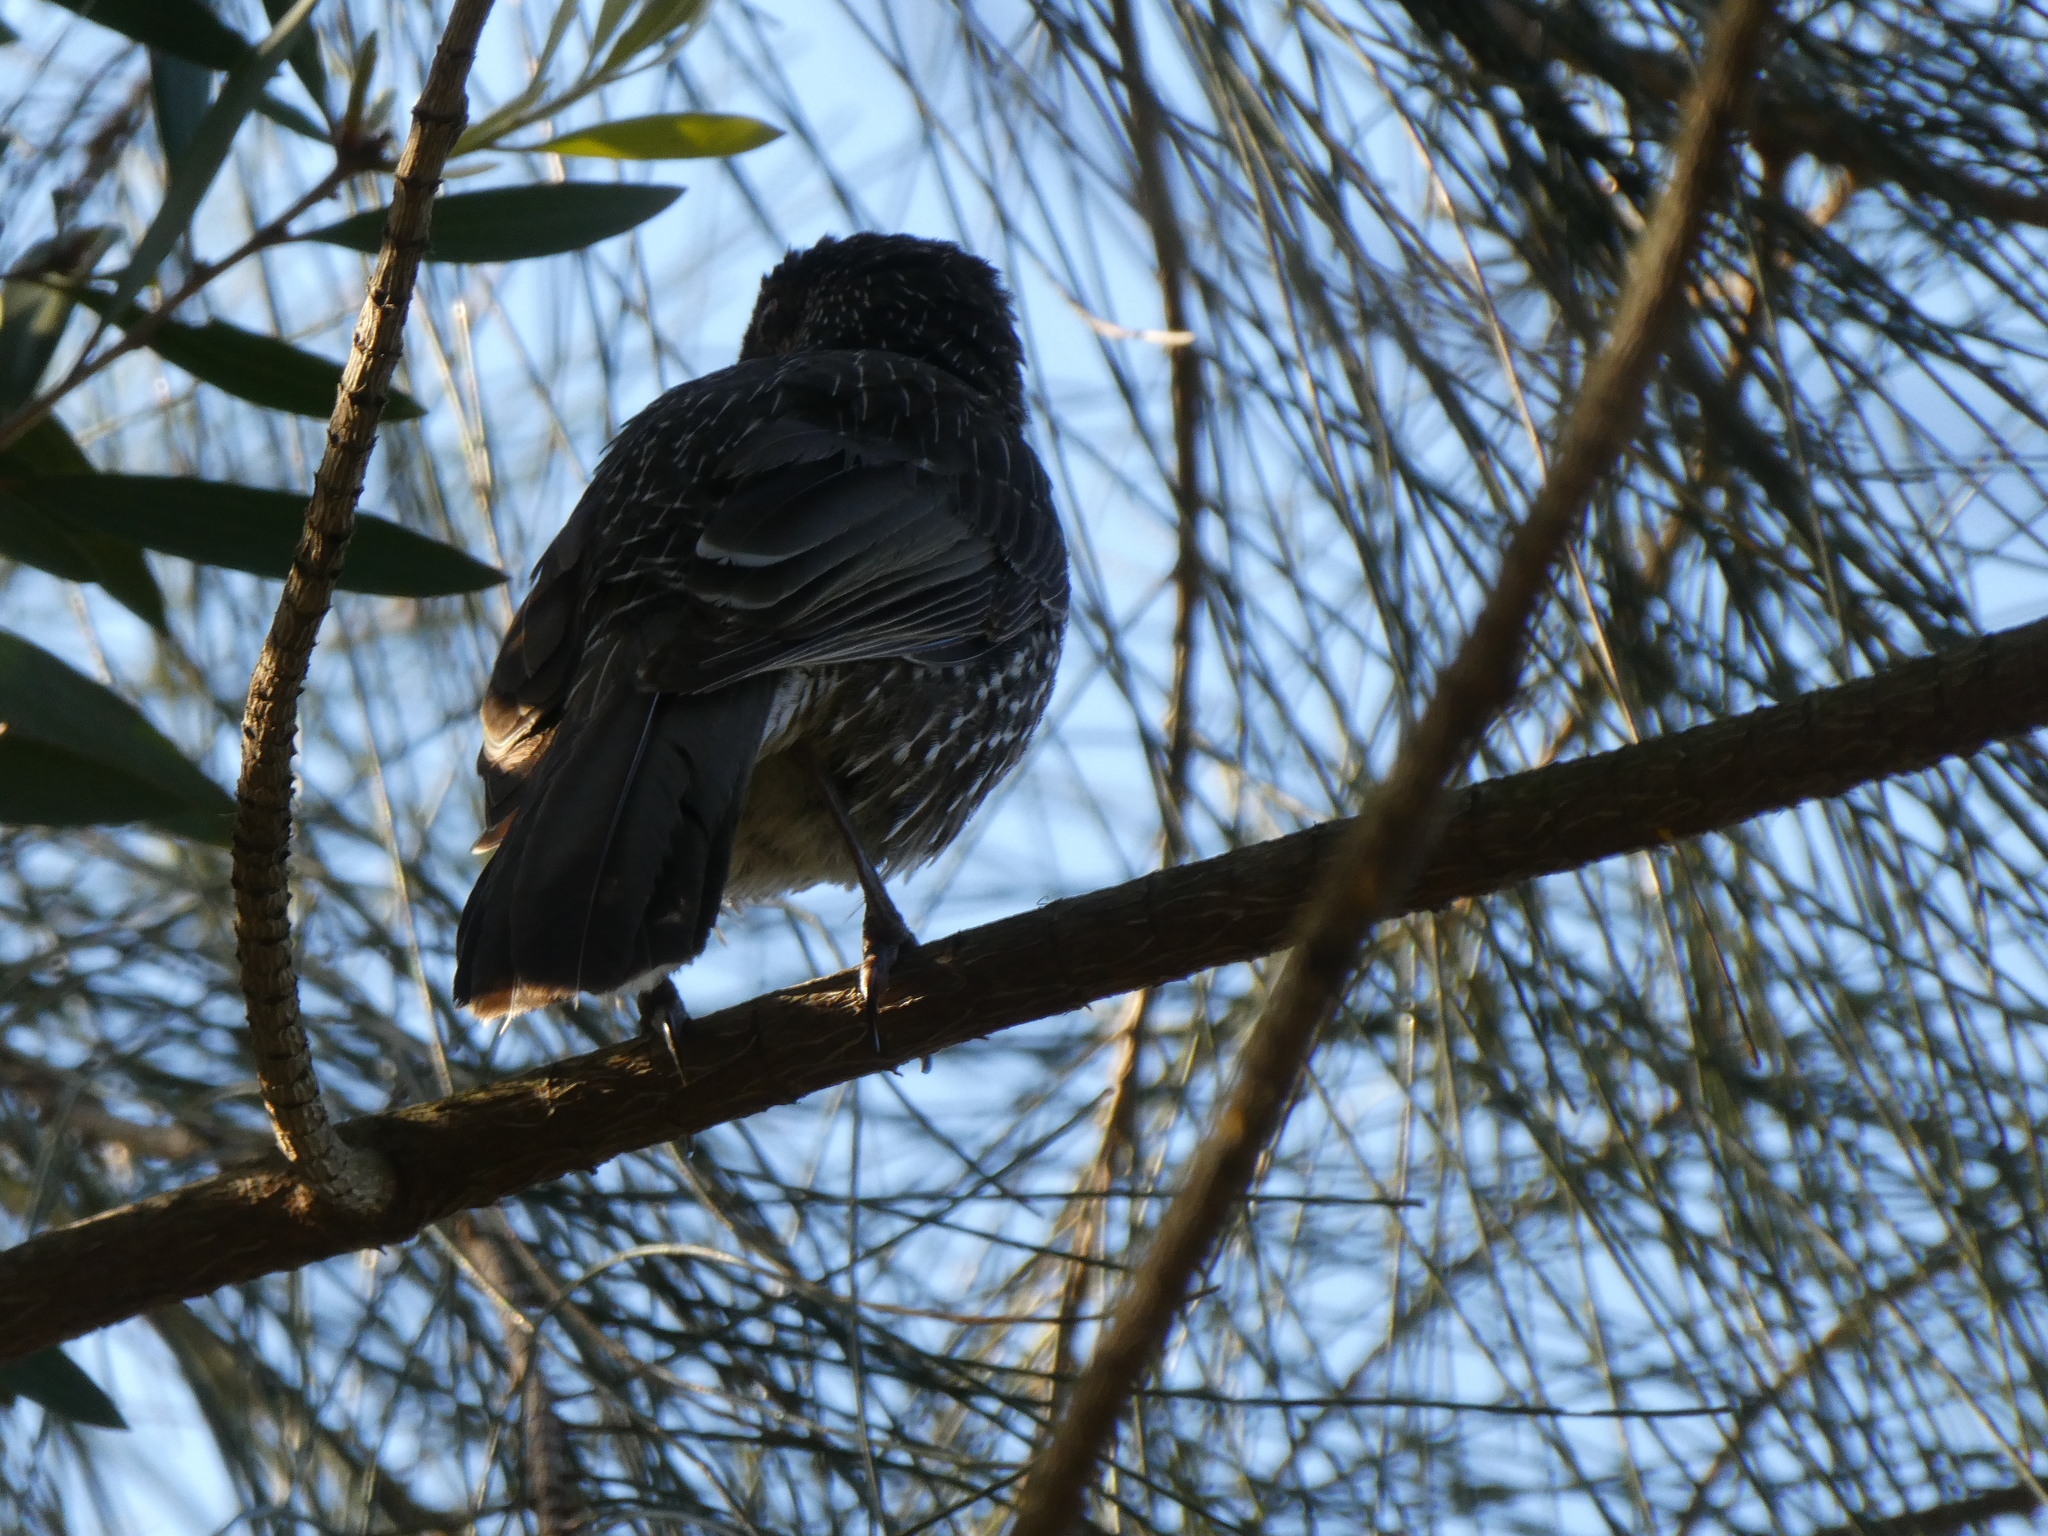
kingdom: Animalia
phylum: Chordata
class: Aves
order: Passeriformes
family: Meliphagidae
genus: Anthochaera
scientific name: Anthochaera chrysoptera
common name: Little wattlebird
